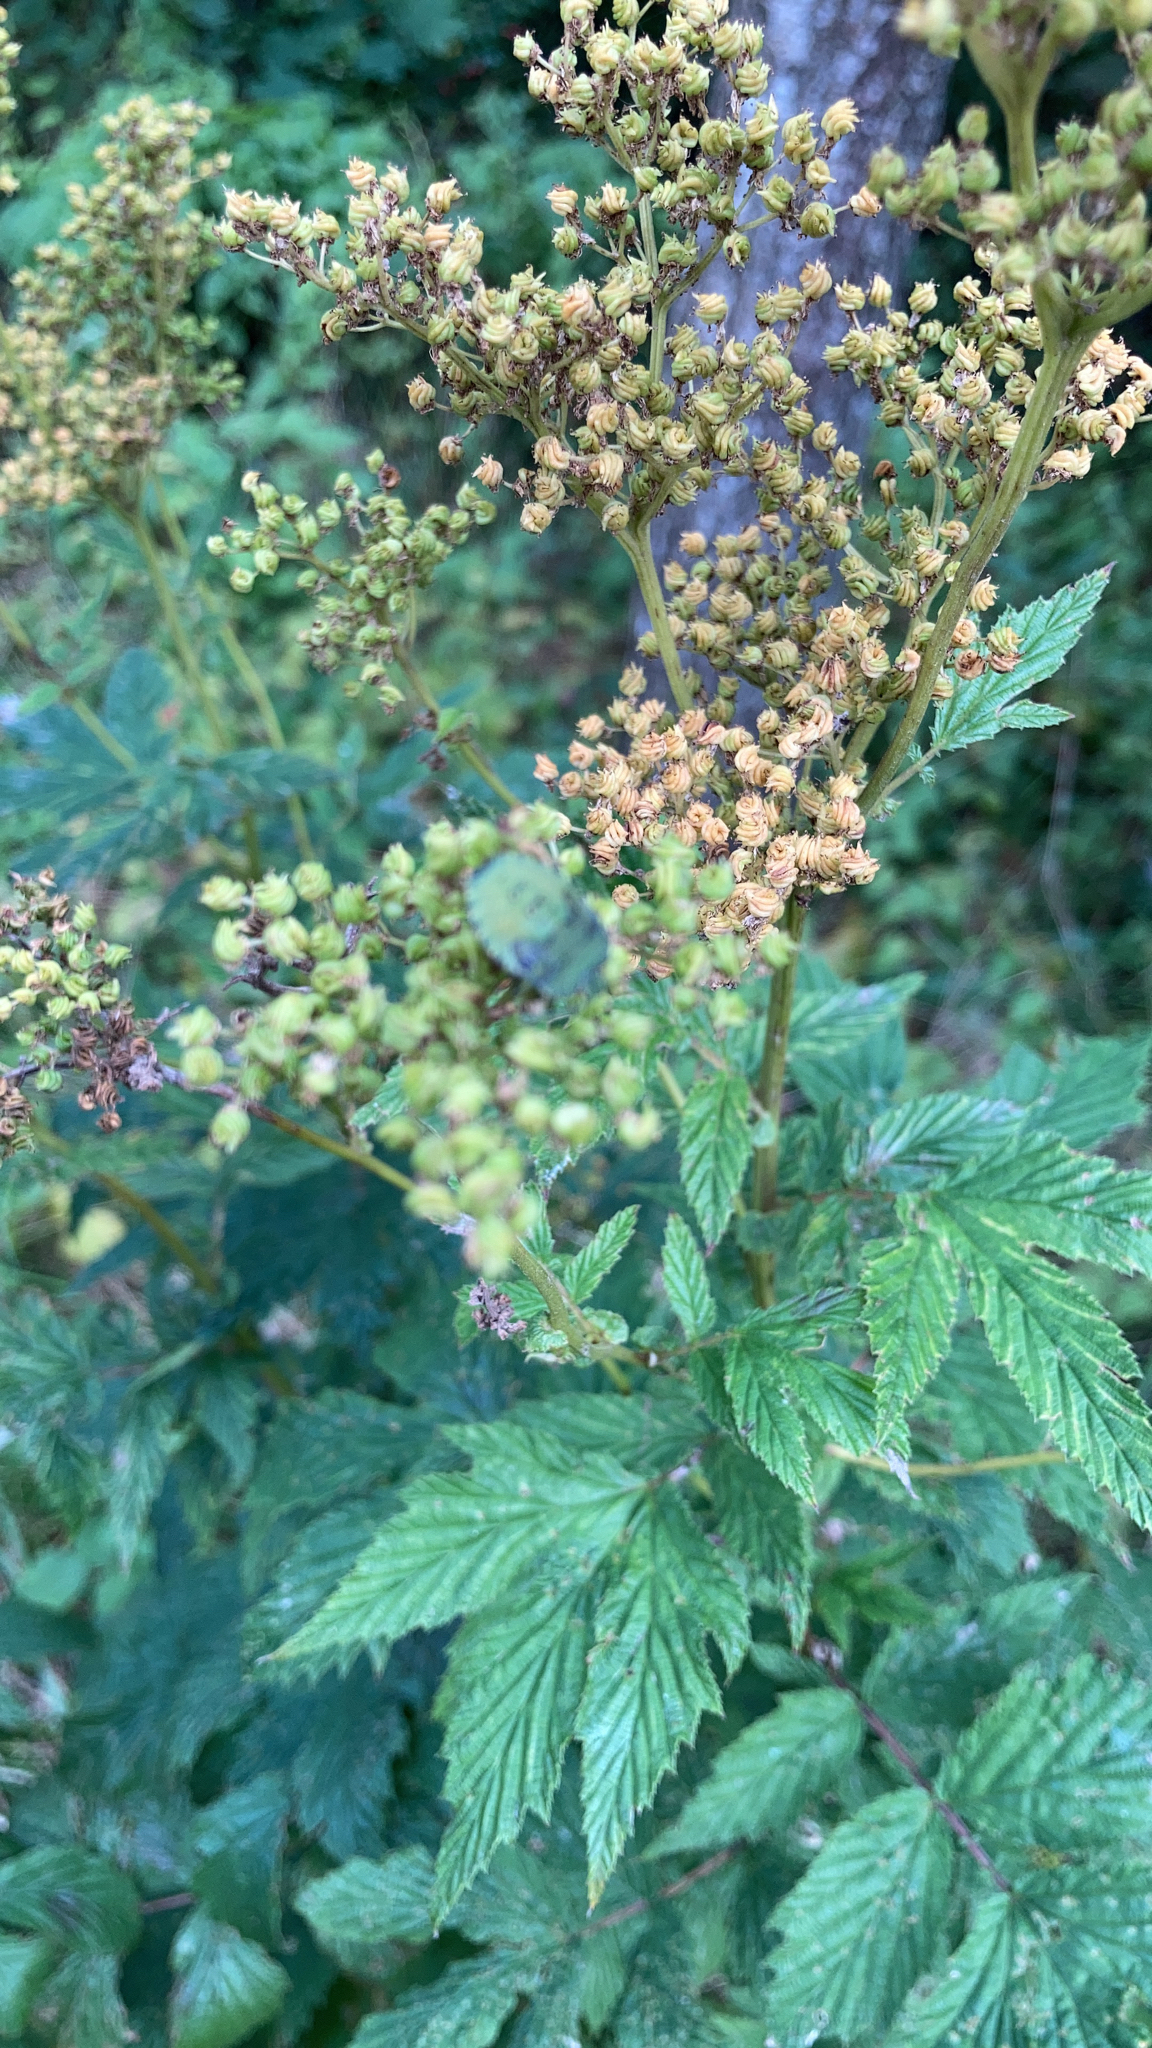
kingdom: Plantae
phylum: Tracheophyta
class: Magnoliopsida
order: Rosales
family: Rosaceae
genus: Filipendula
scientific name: Filipendula ulmaria
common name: Meadowsweet
